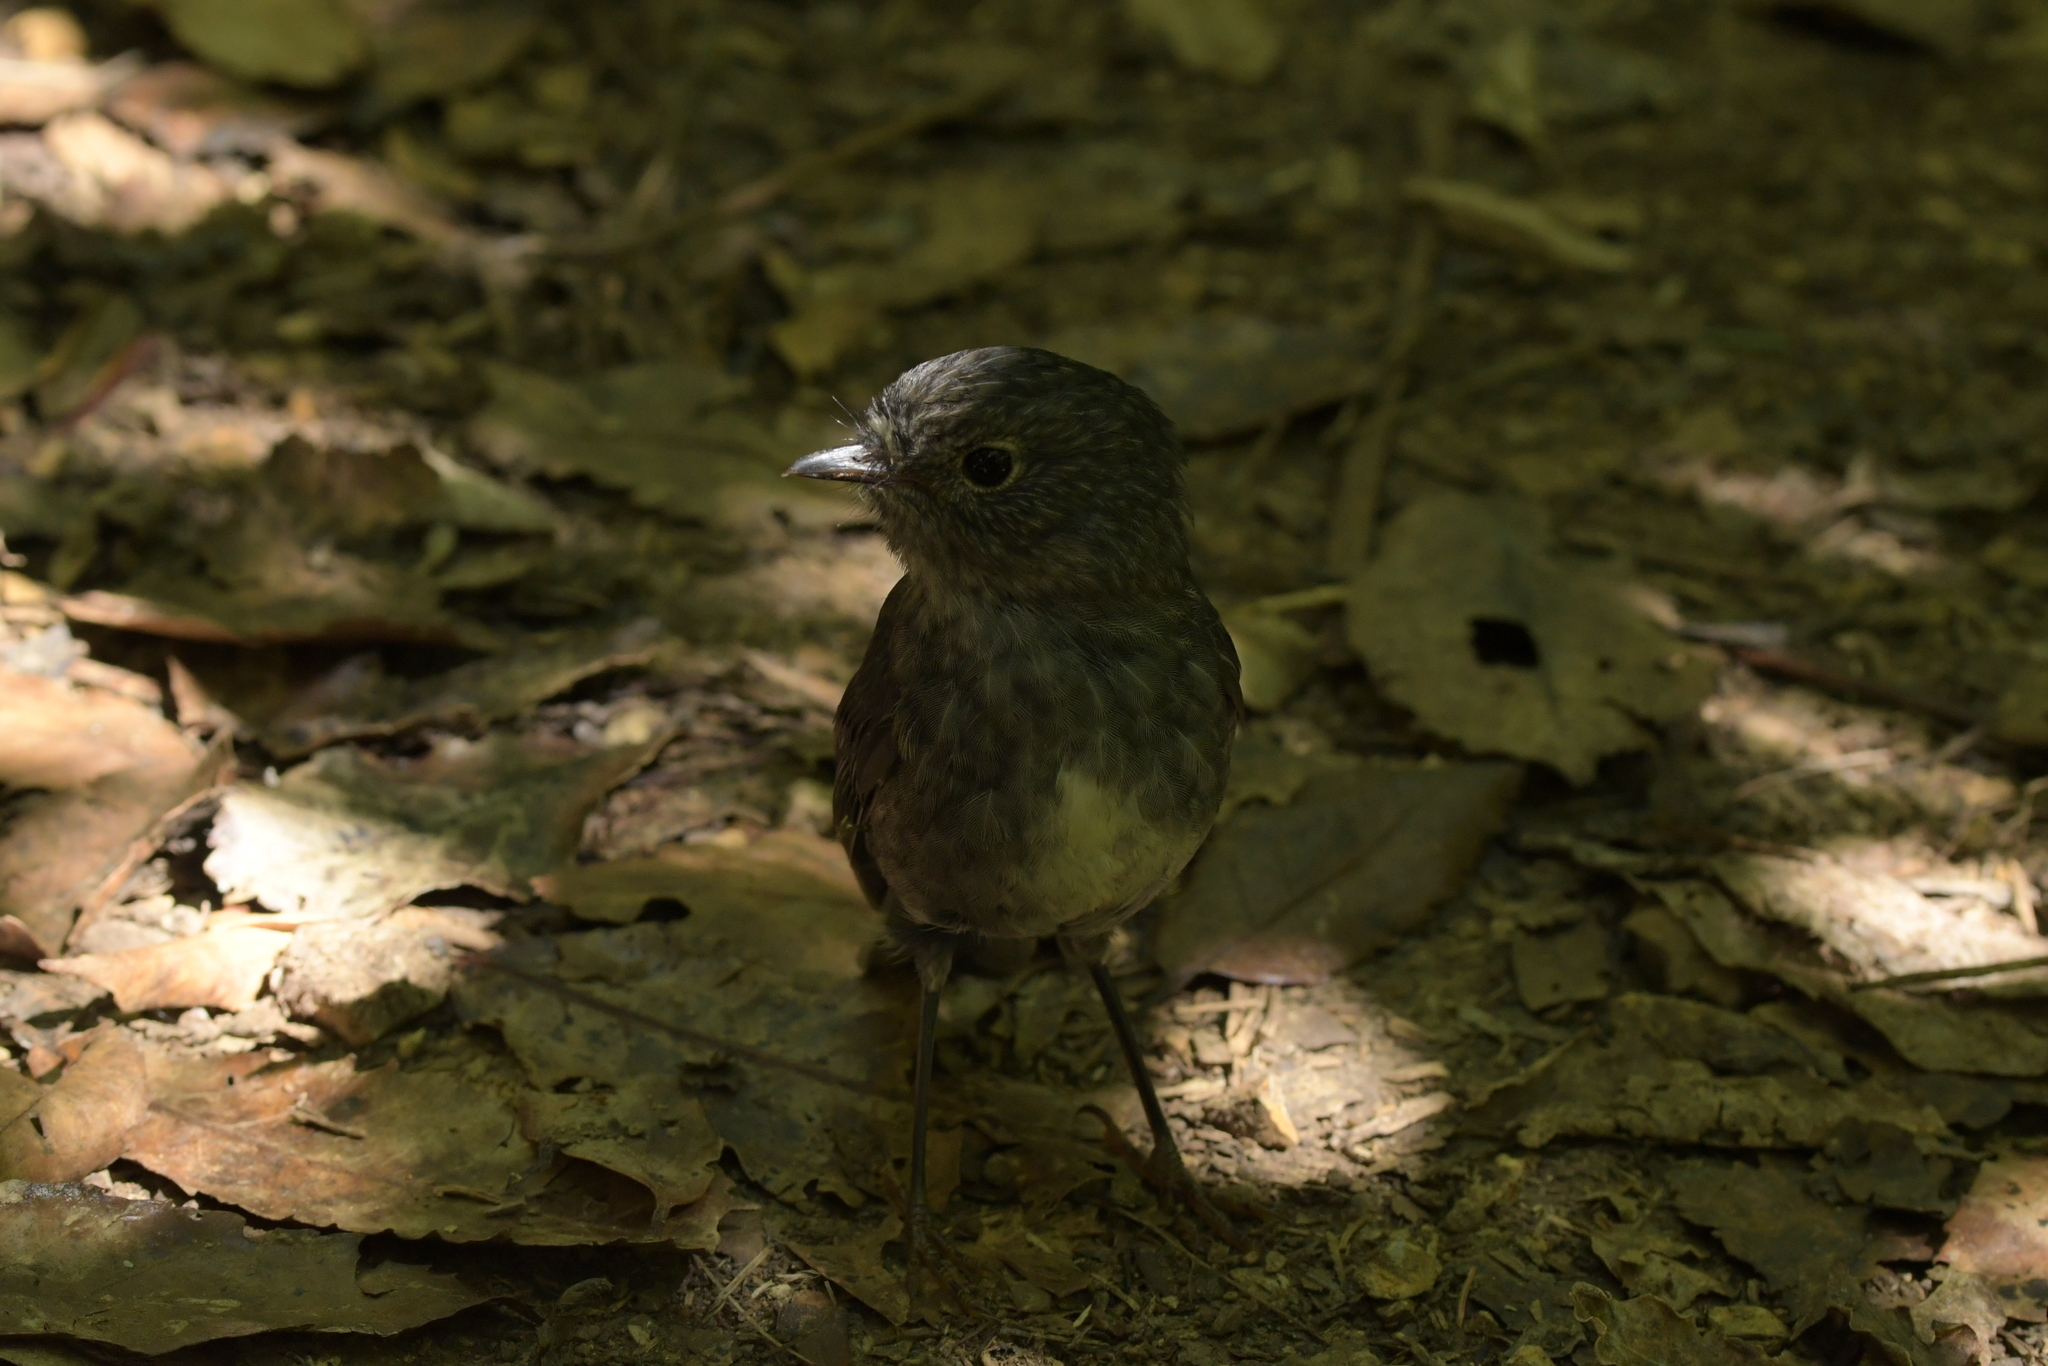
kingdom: Animalia
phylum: Chordata
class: Aves
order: Passeriformes
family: Petroicidae
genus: Petroica
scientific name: Petroica australis
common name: New zealand robin
